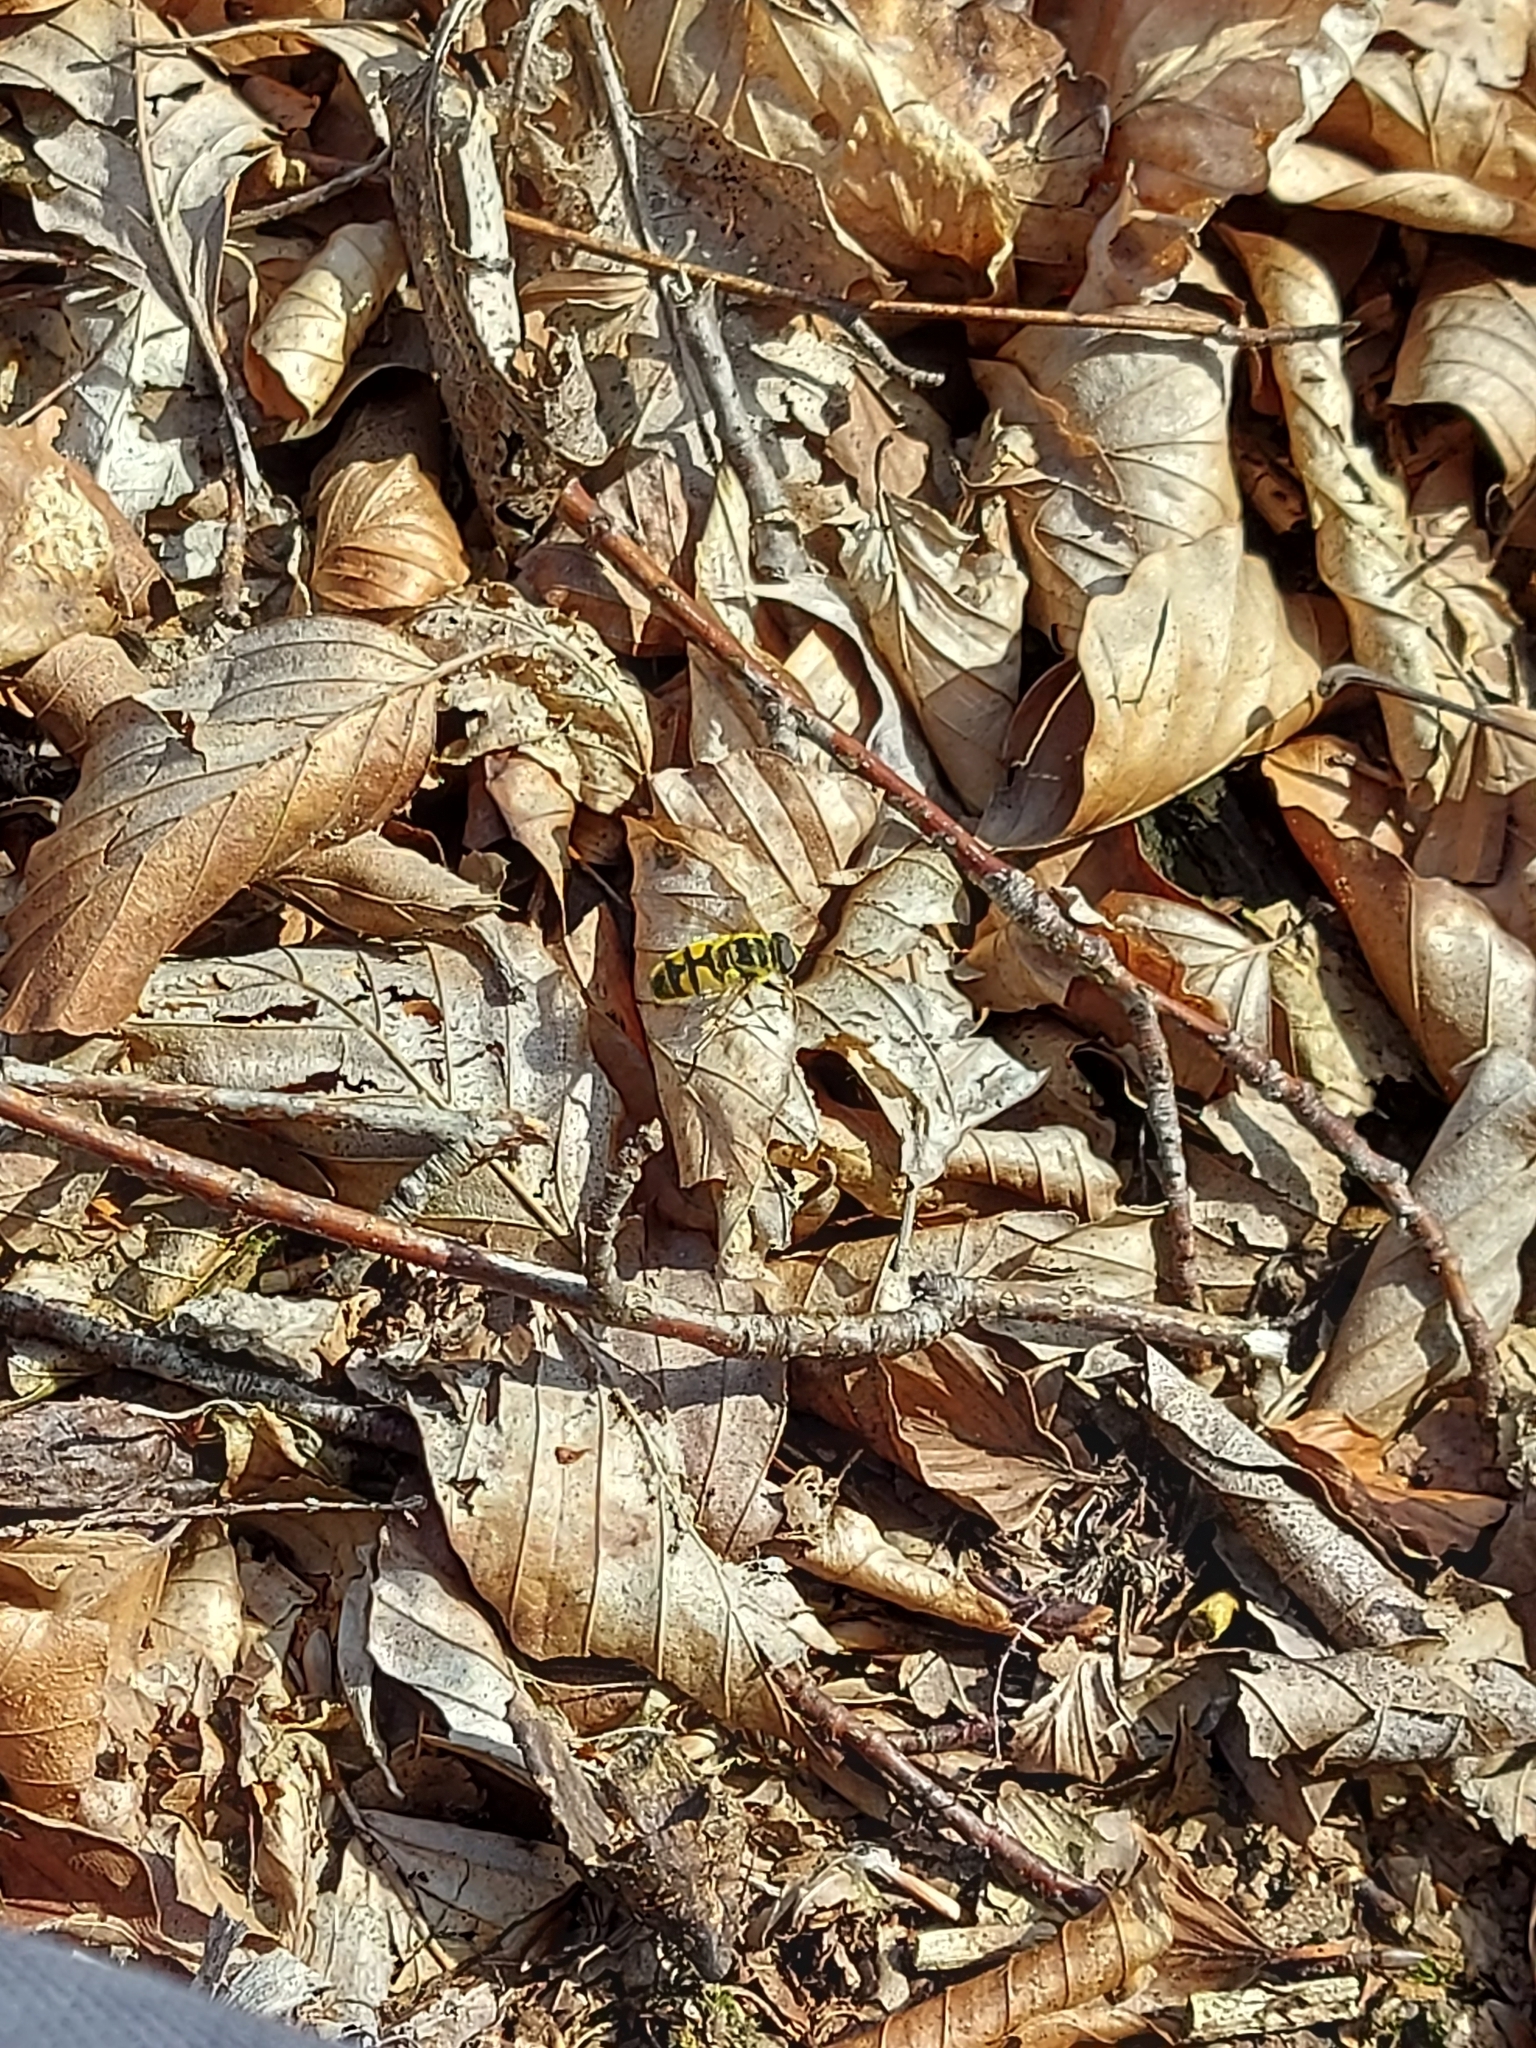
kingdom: Animalia
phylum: Arthropoda
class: Insecta
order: Diptera
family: Syrphidae
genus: Myathropa
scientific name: Myathropa florea
